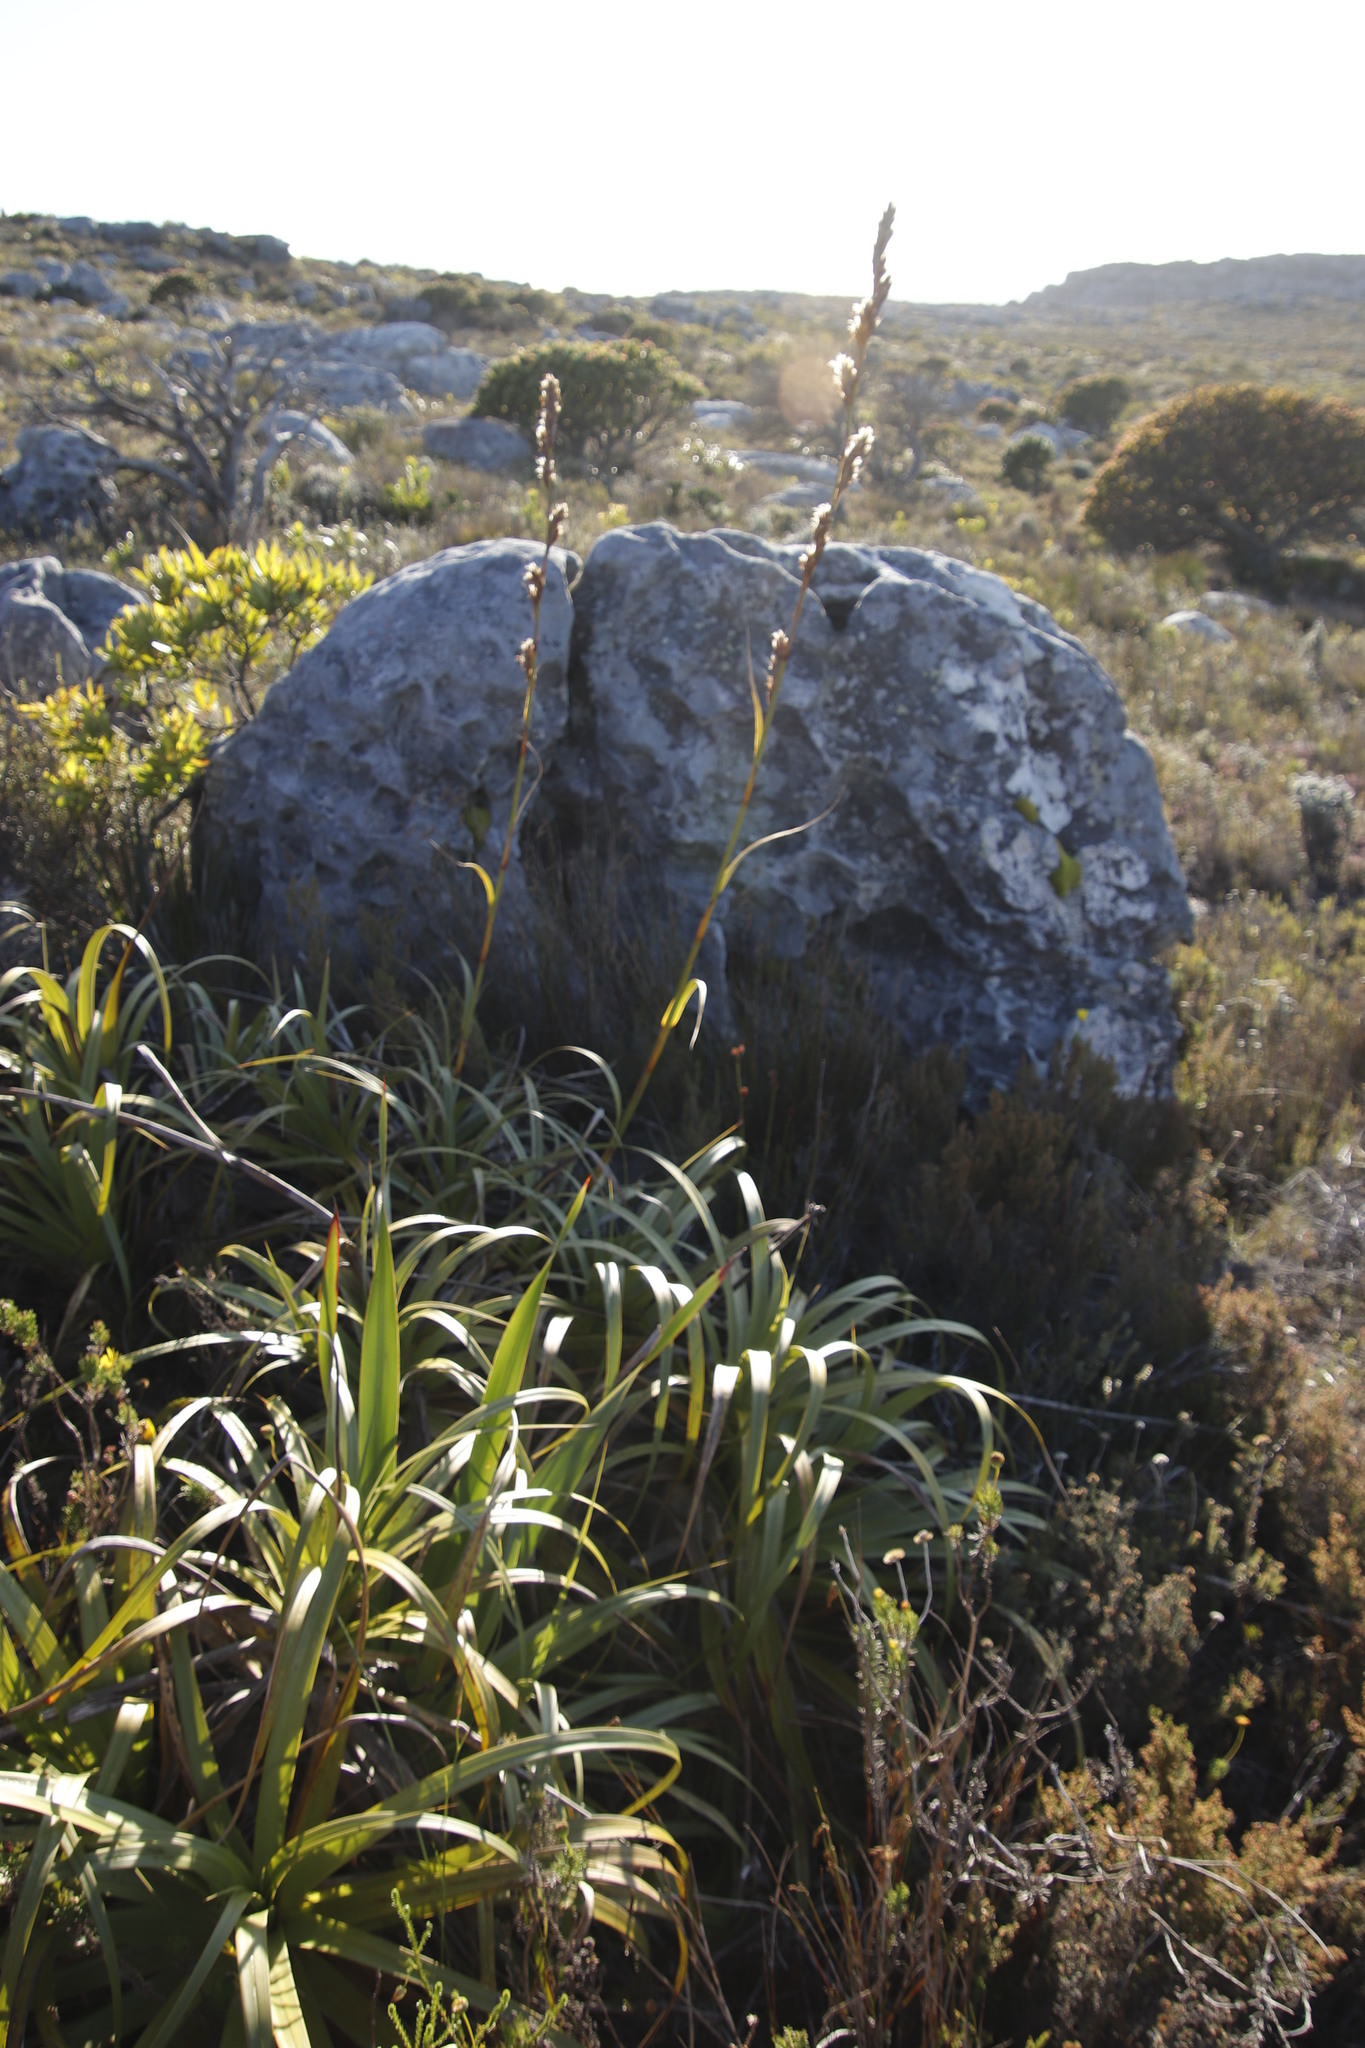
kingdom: Plantae
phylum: Tracheophyta
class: Liliopsida
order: Poales
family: Cyperaceae
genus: Tetraria
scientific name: Tetraria thermalis
